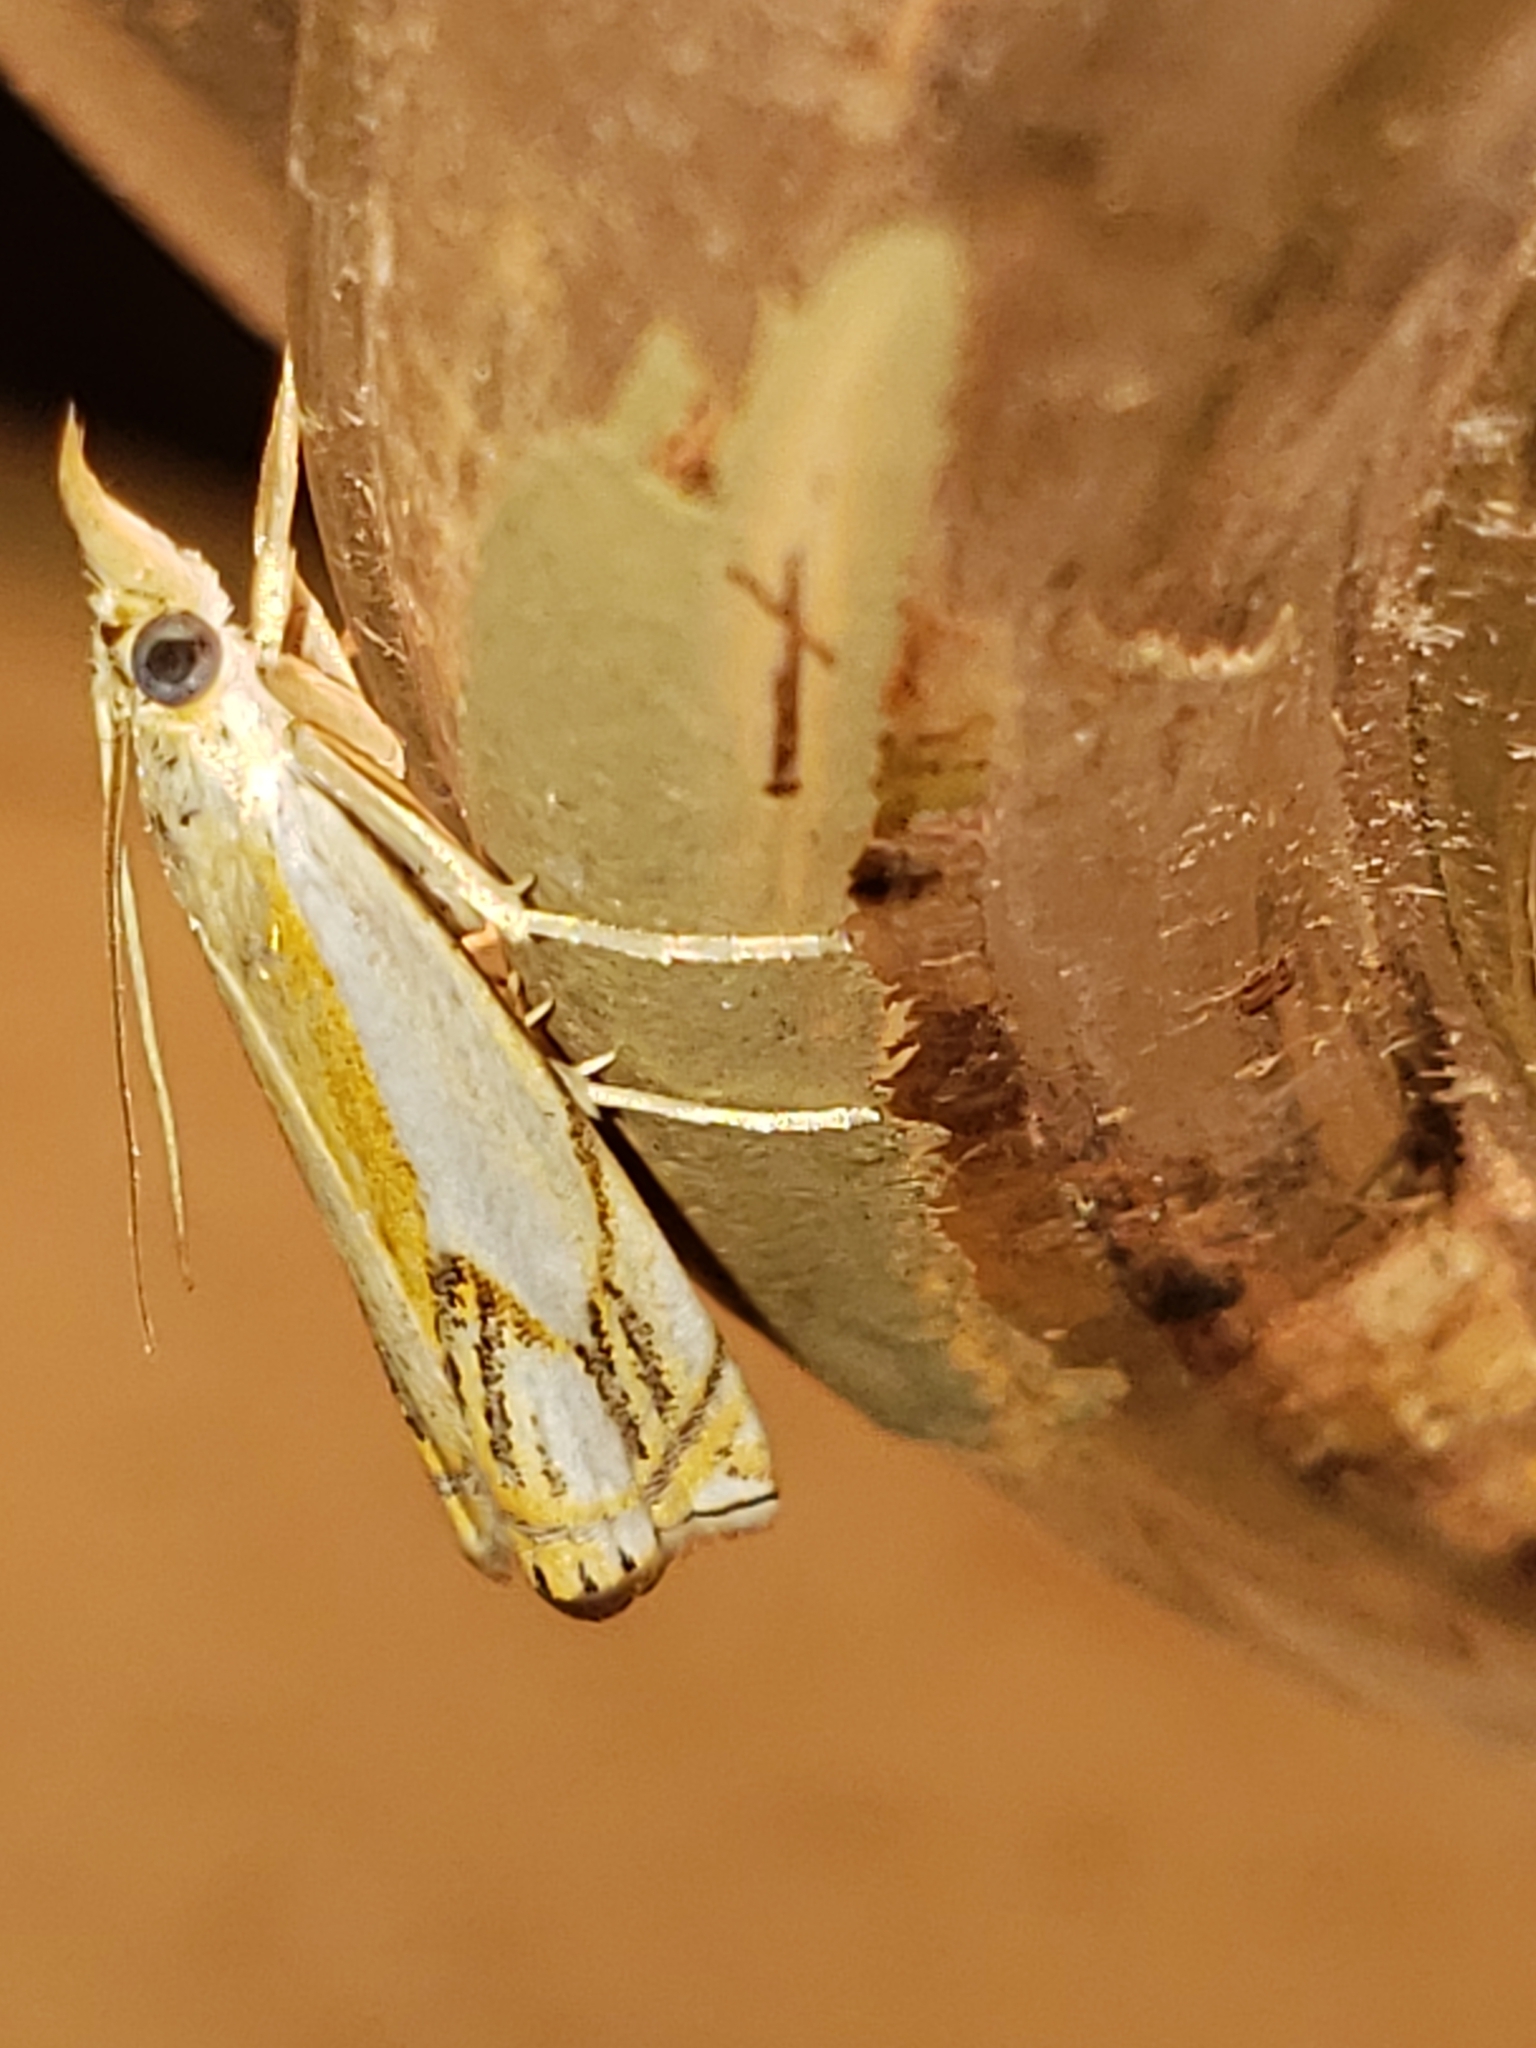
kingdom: Animalia
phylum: Arthropoda
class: Insecta
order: Lepidoptera
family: Crambidae
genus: Crambus
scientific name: Crambus agitatellus
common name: Double-banded grass-veneer
